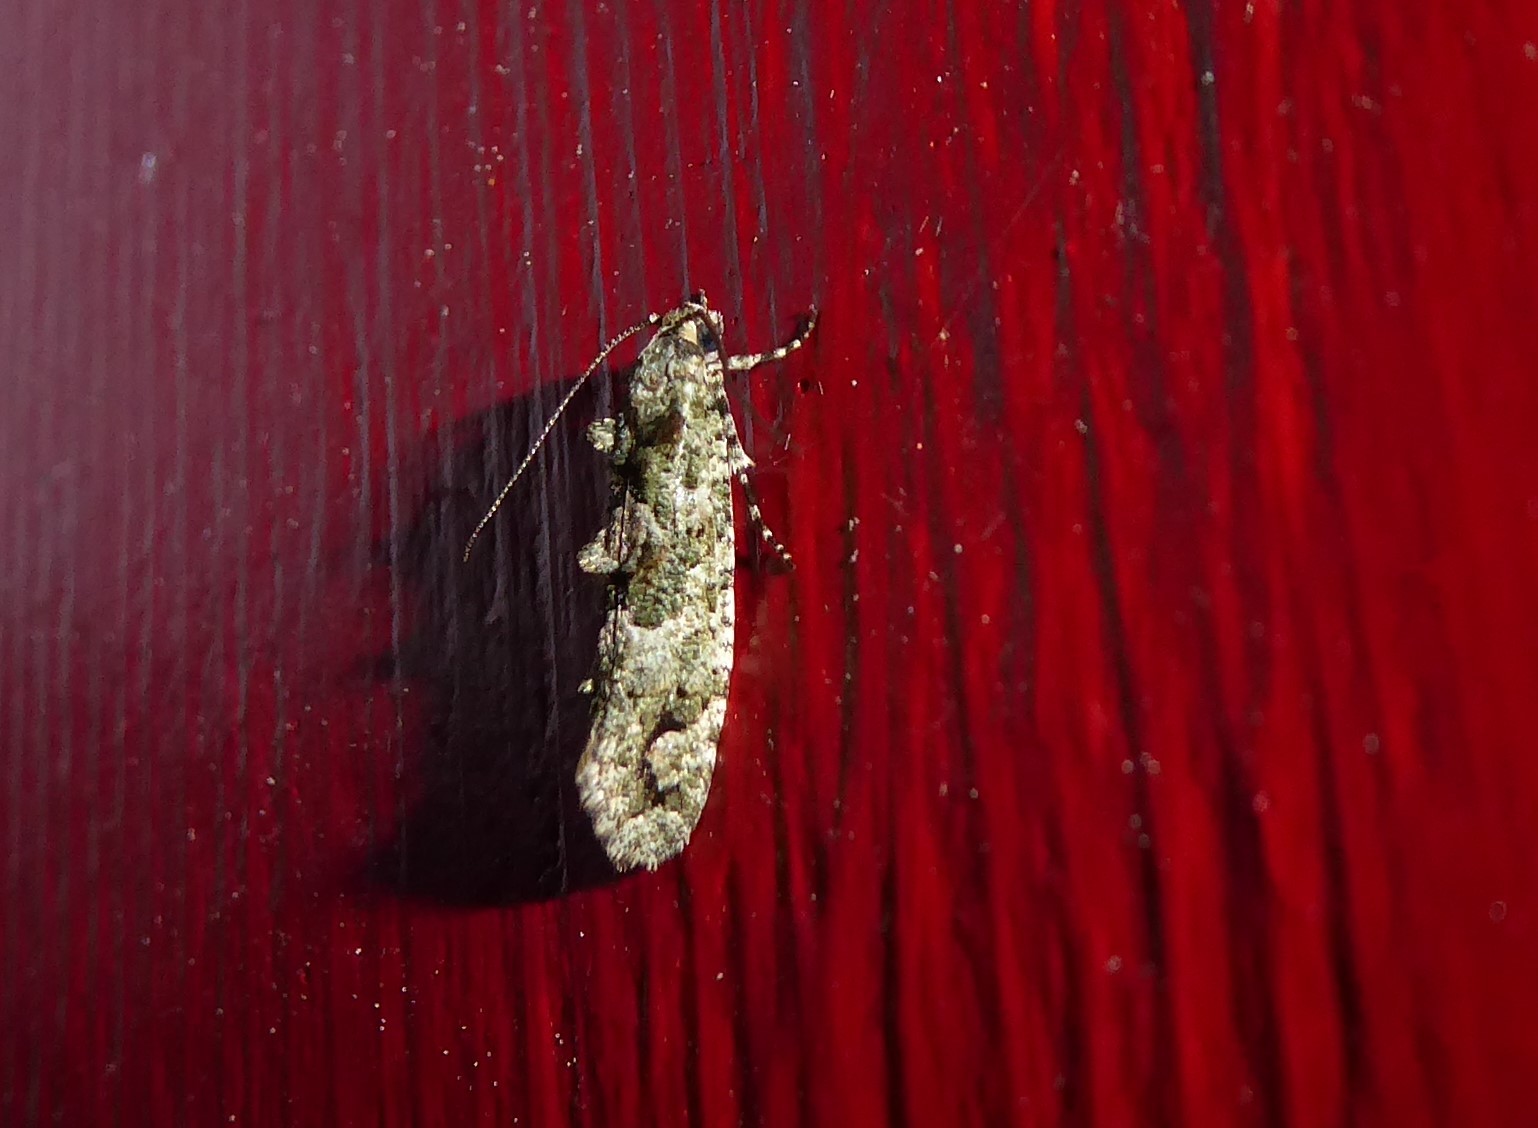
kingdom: Animalia
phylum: Arthropoda
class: Insecta
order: Lepidoptera
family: Tineidae
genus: Lysiphragma
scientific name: Lysiphragma howesii
